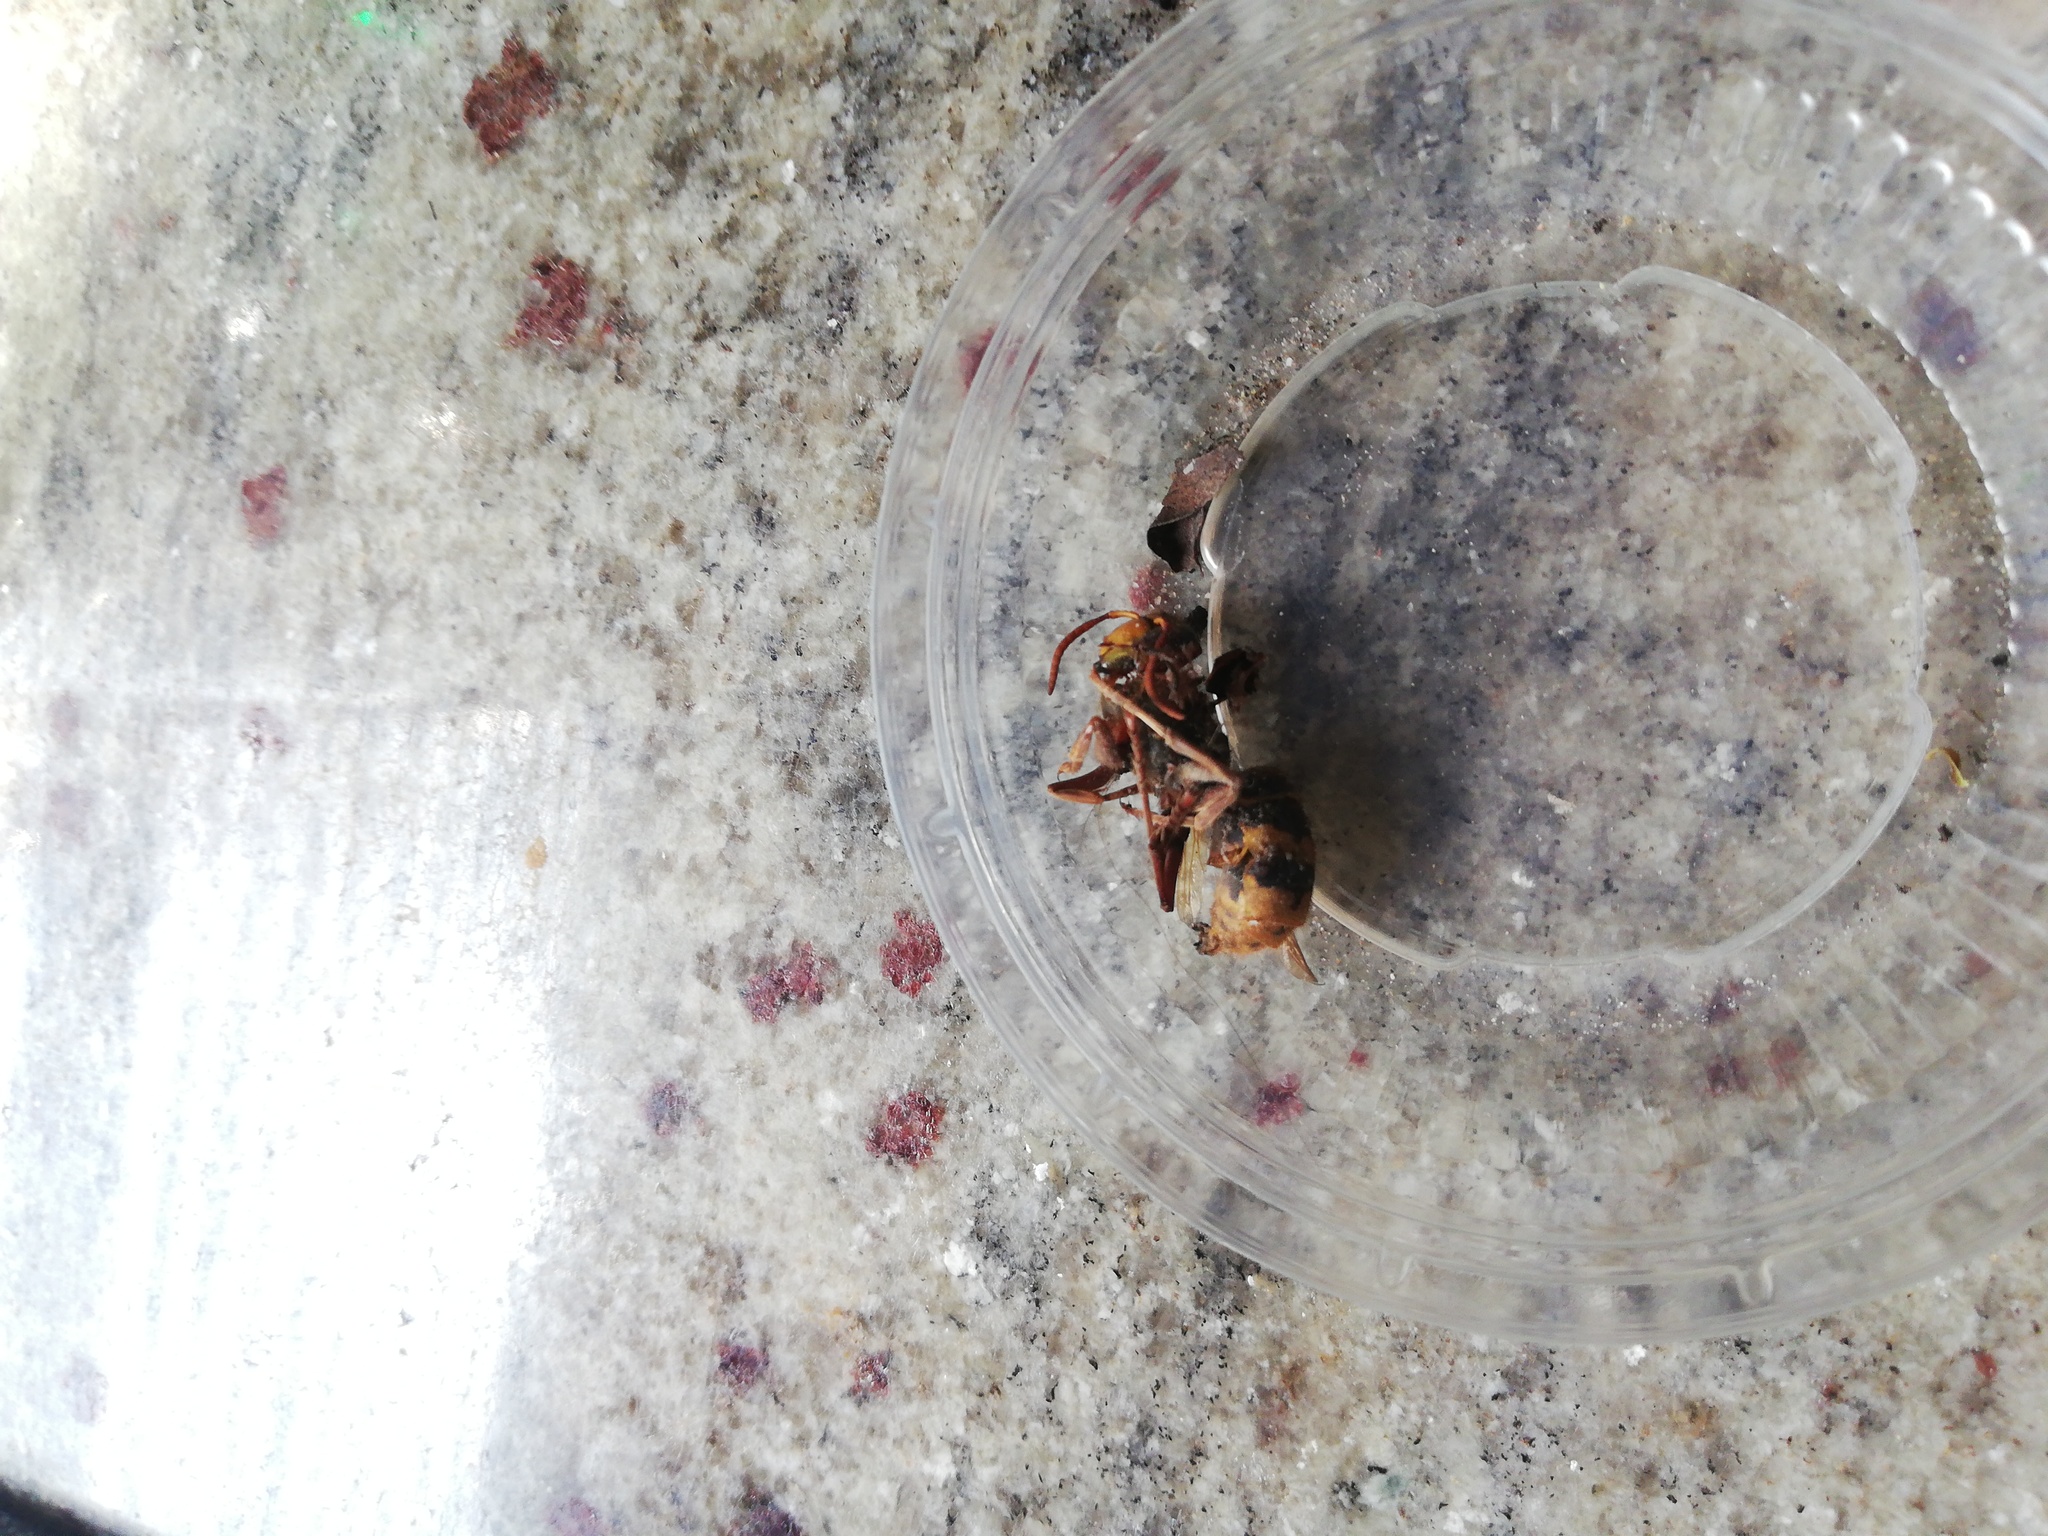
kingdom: Animalia
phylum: Arthropoda
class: Insecta
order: Hymenoptera
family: Vespidae
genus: Vespa
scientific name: Vespa crabro
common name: Hornet
